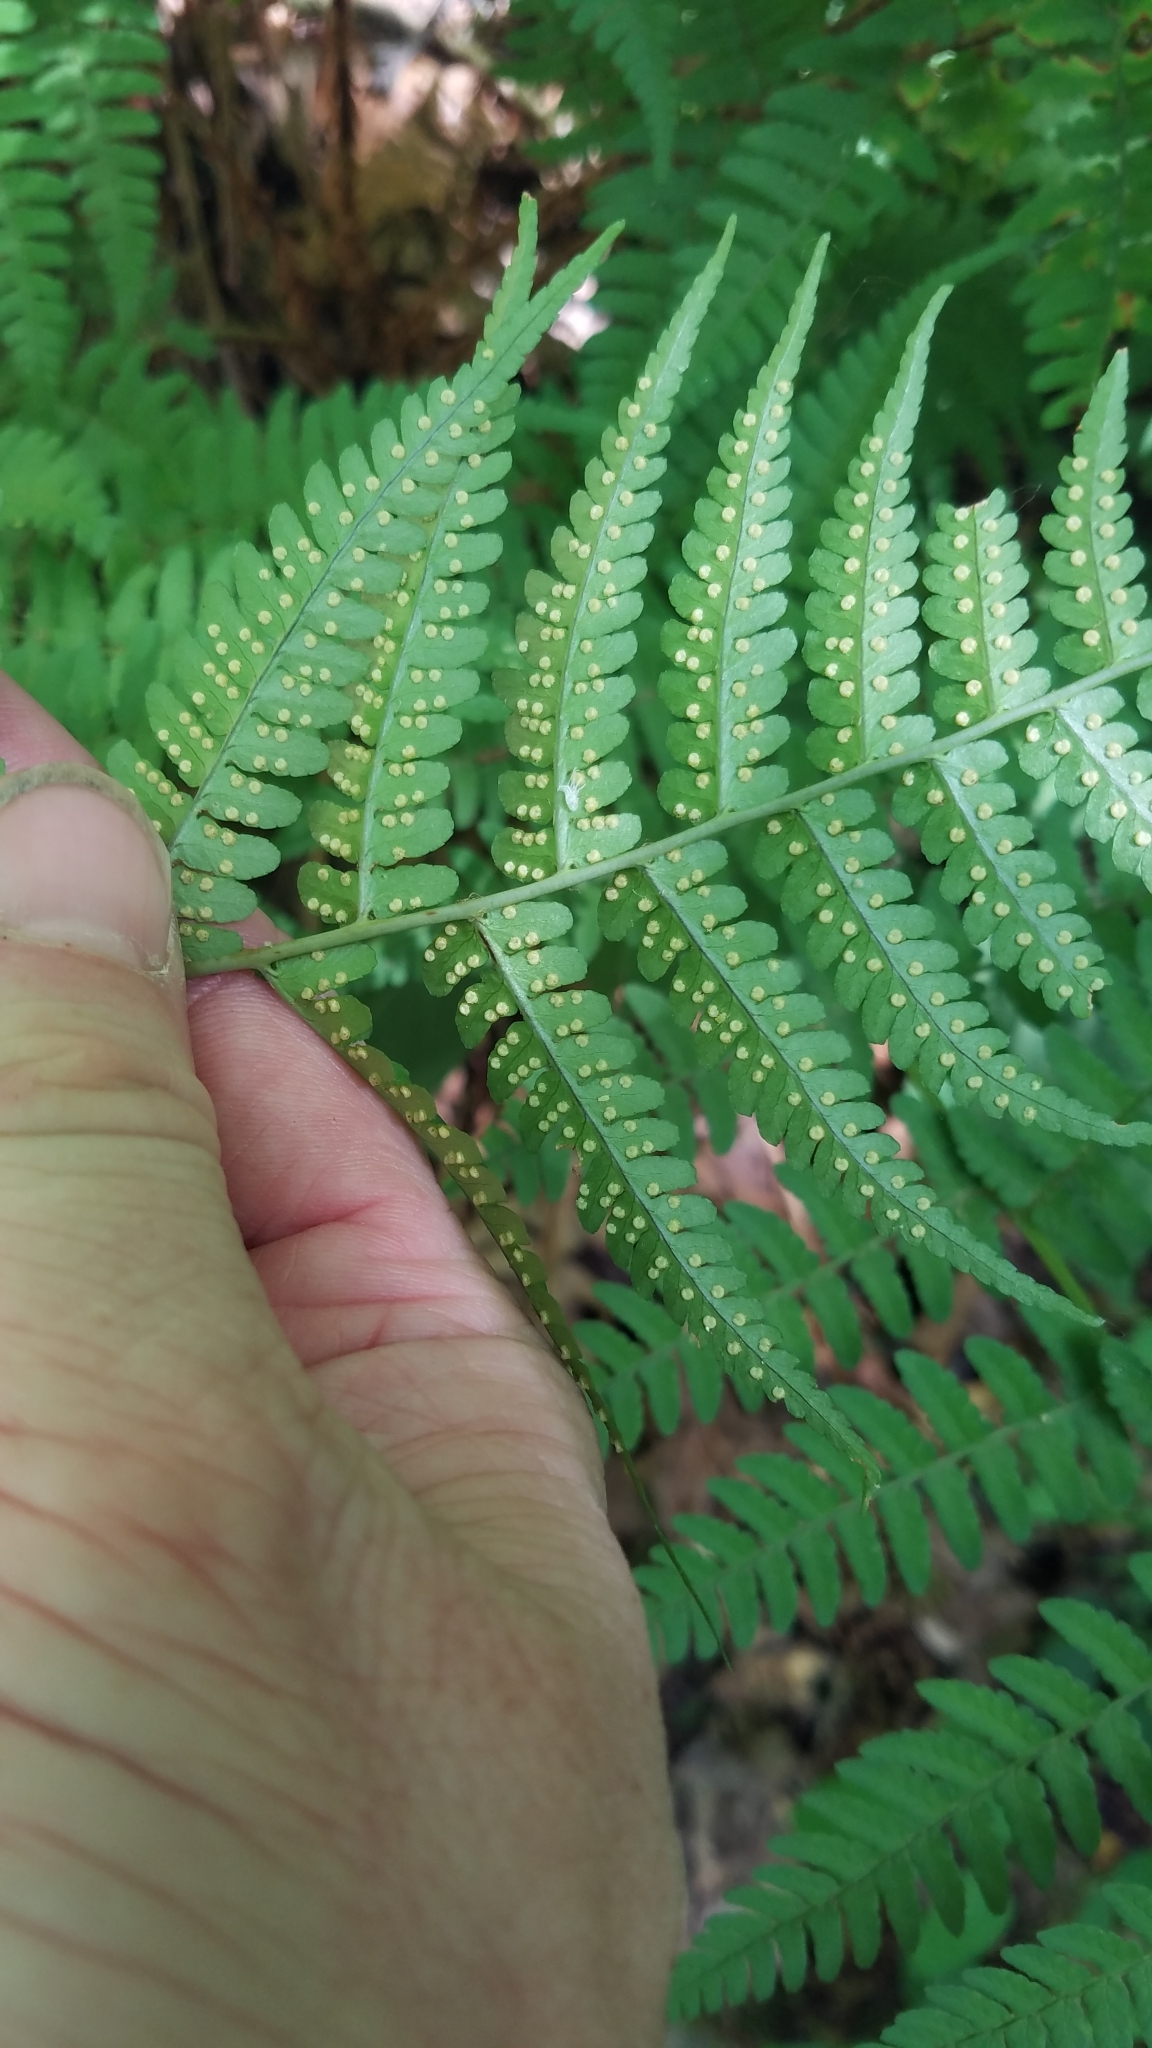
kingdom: Plantae
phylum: Tracheophyta
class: Polypodiopsida
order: Polypodiales
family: Dryopteridaceae
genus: Dryopteris
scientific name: Dryopteris marginalis
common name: Marginal wood fern
